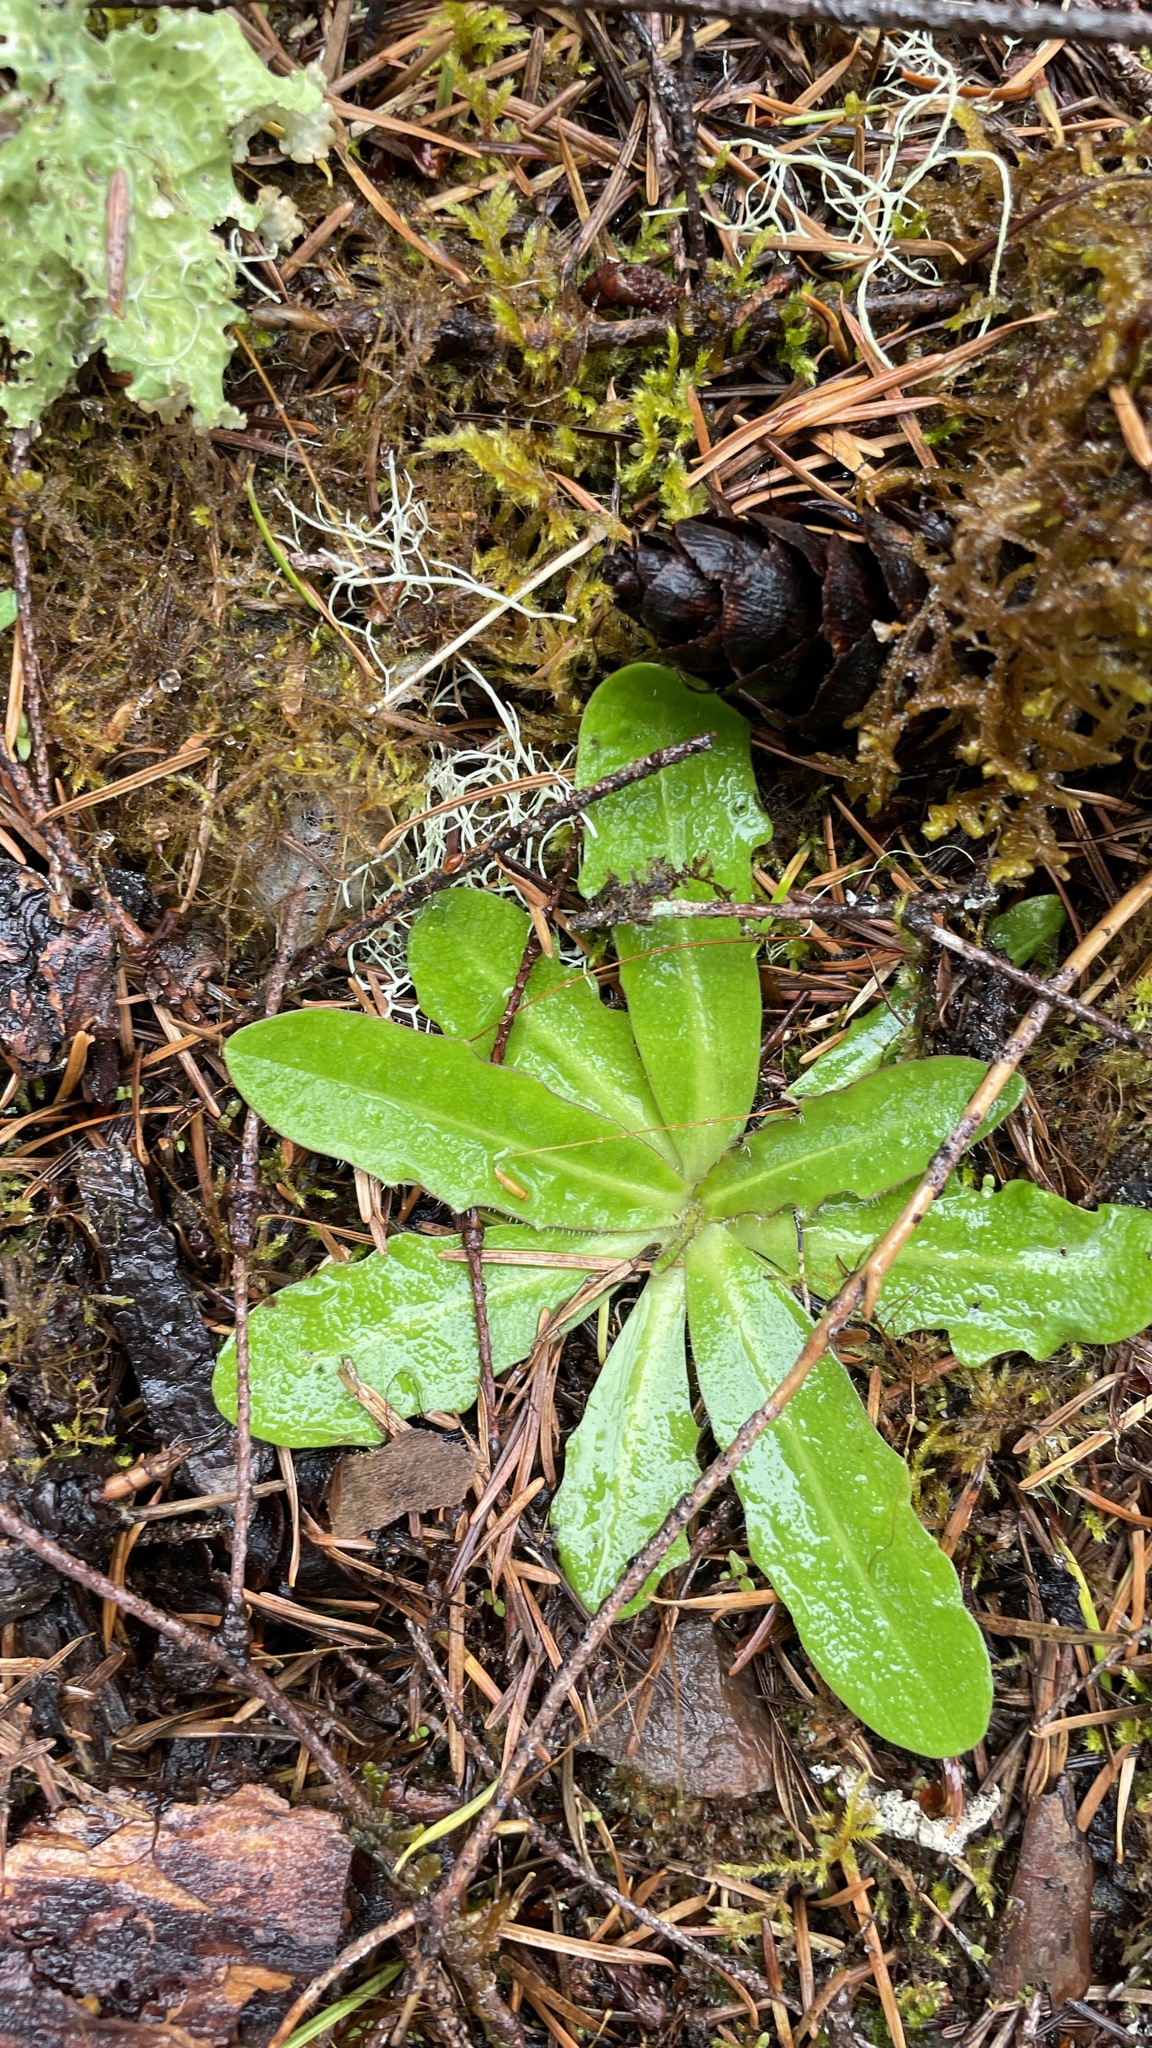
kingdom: Plantae
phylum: Tracheophyta
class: Magnoliopsida
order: Asterales
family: Asteraceae
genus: Hypochaeris
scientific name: Hypochaeris radicata
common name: Flatweed
